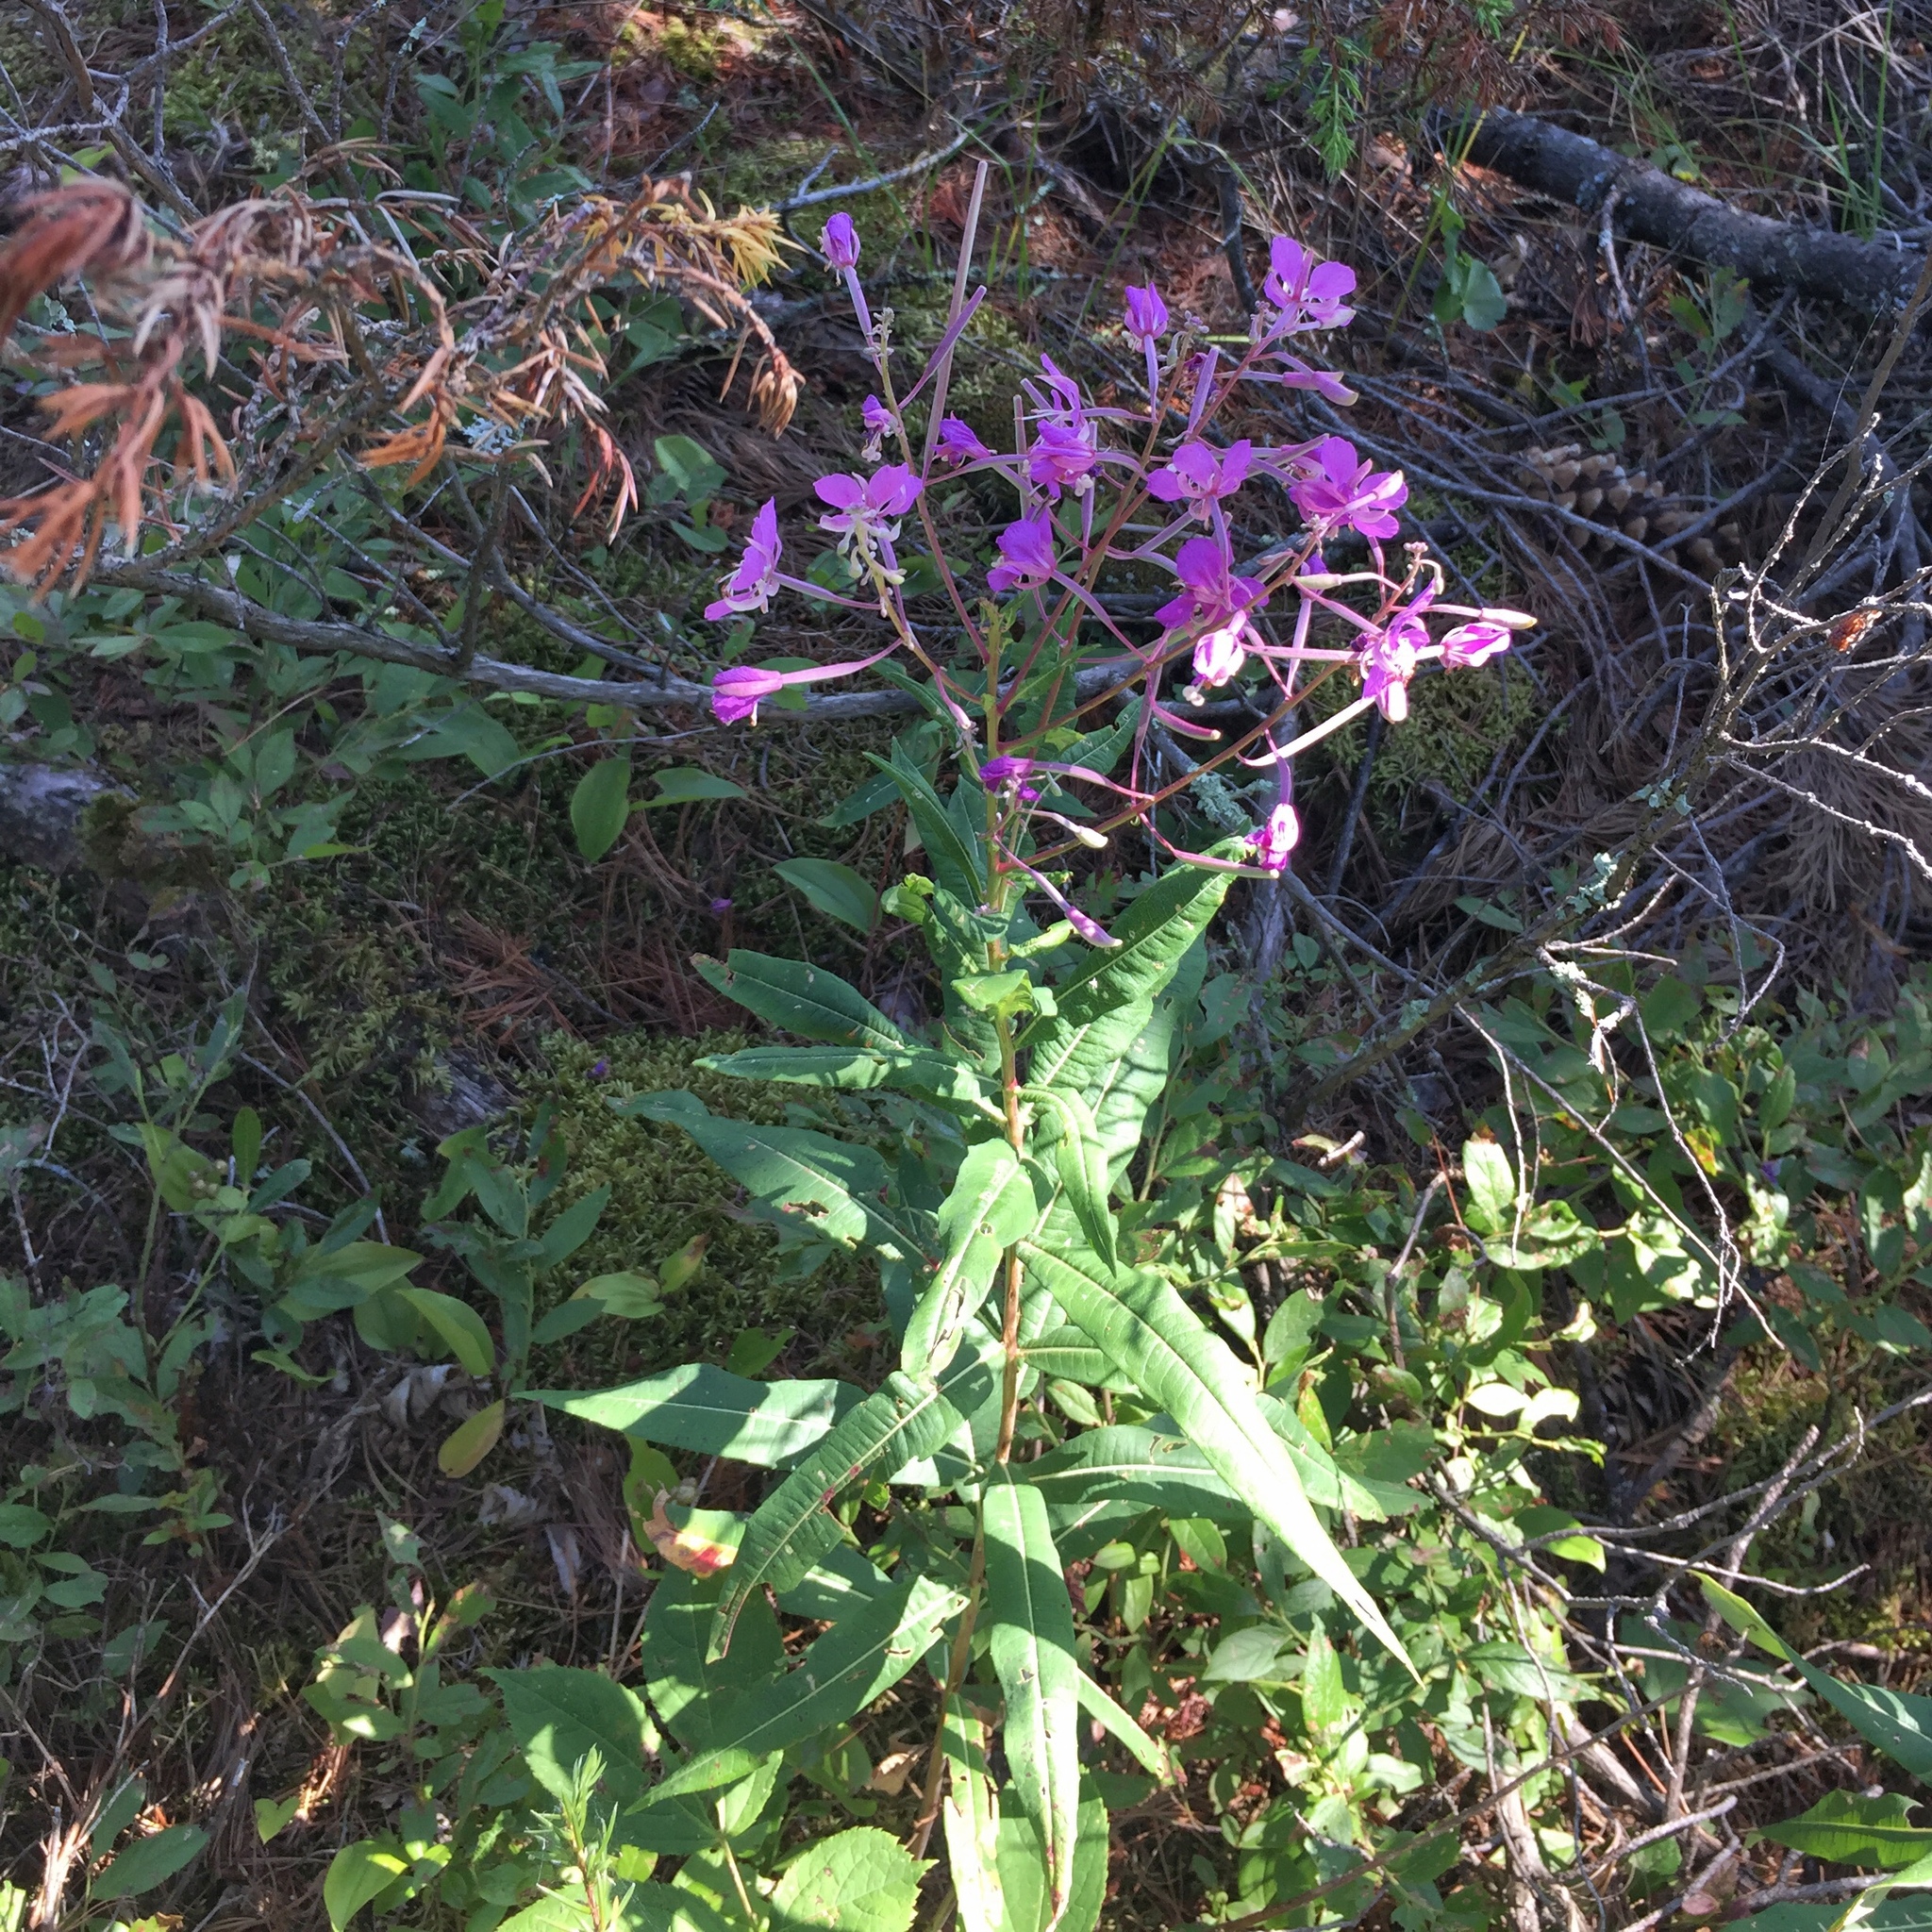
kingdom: Plantae
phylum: Tracheophyta
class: Magnoliopsida
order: Myrtales
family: Onagraceae
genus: Chamaenerion
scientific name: Chamaenerion angustifolium
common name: Fireweed
